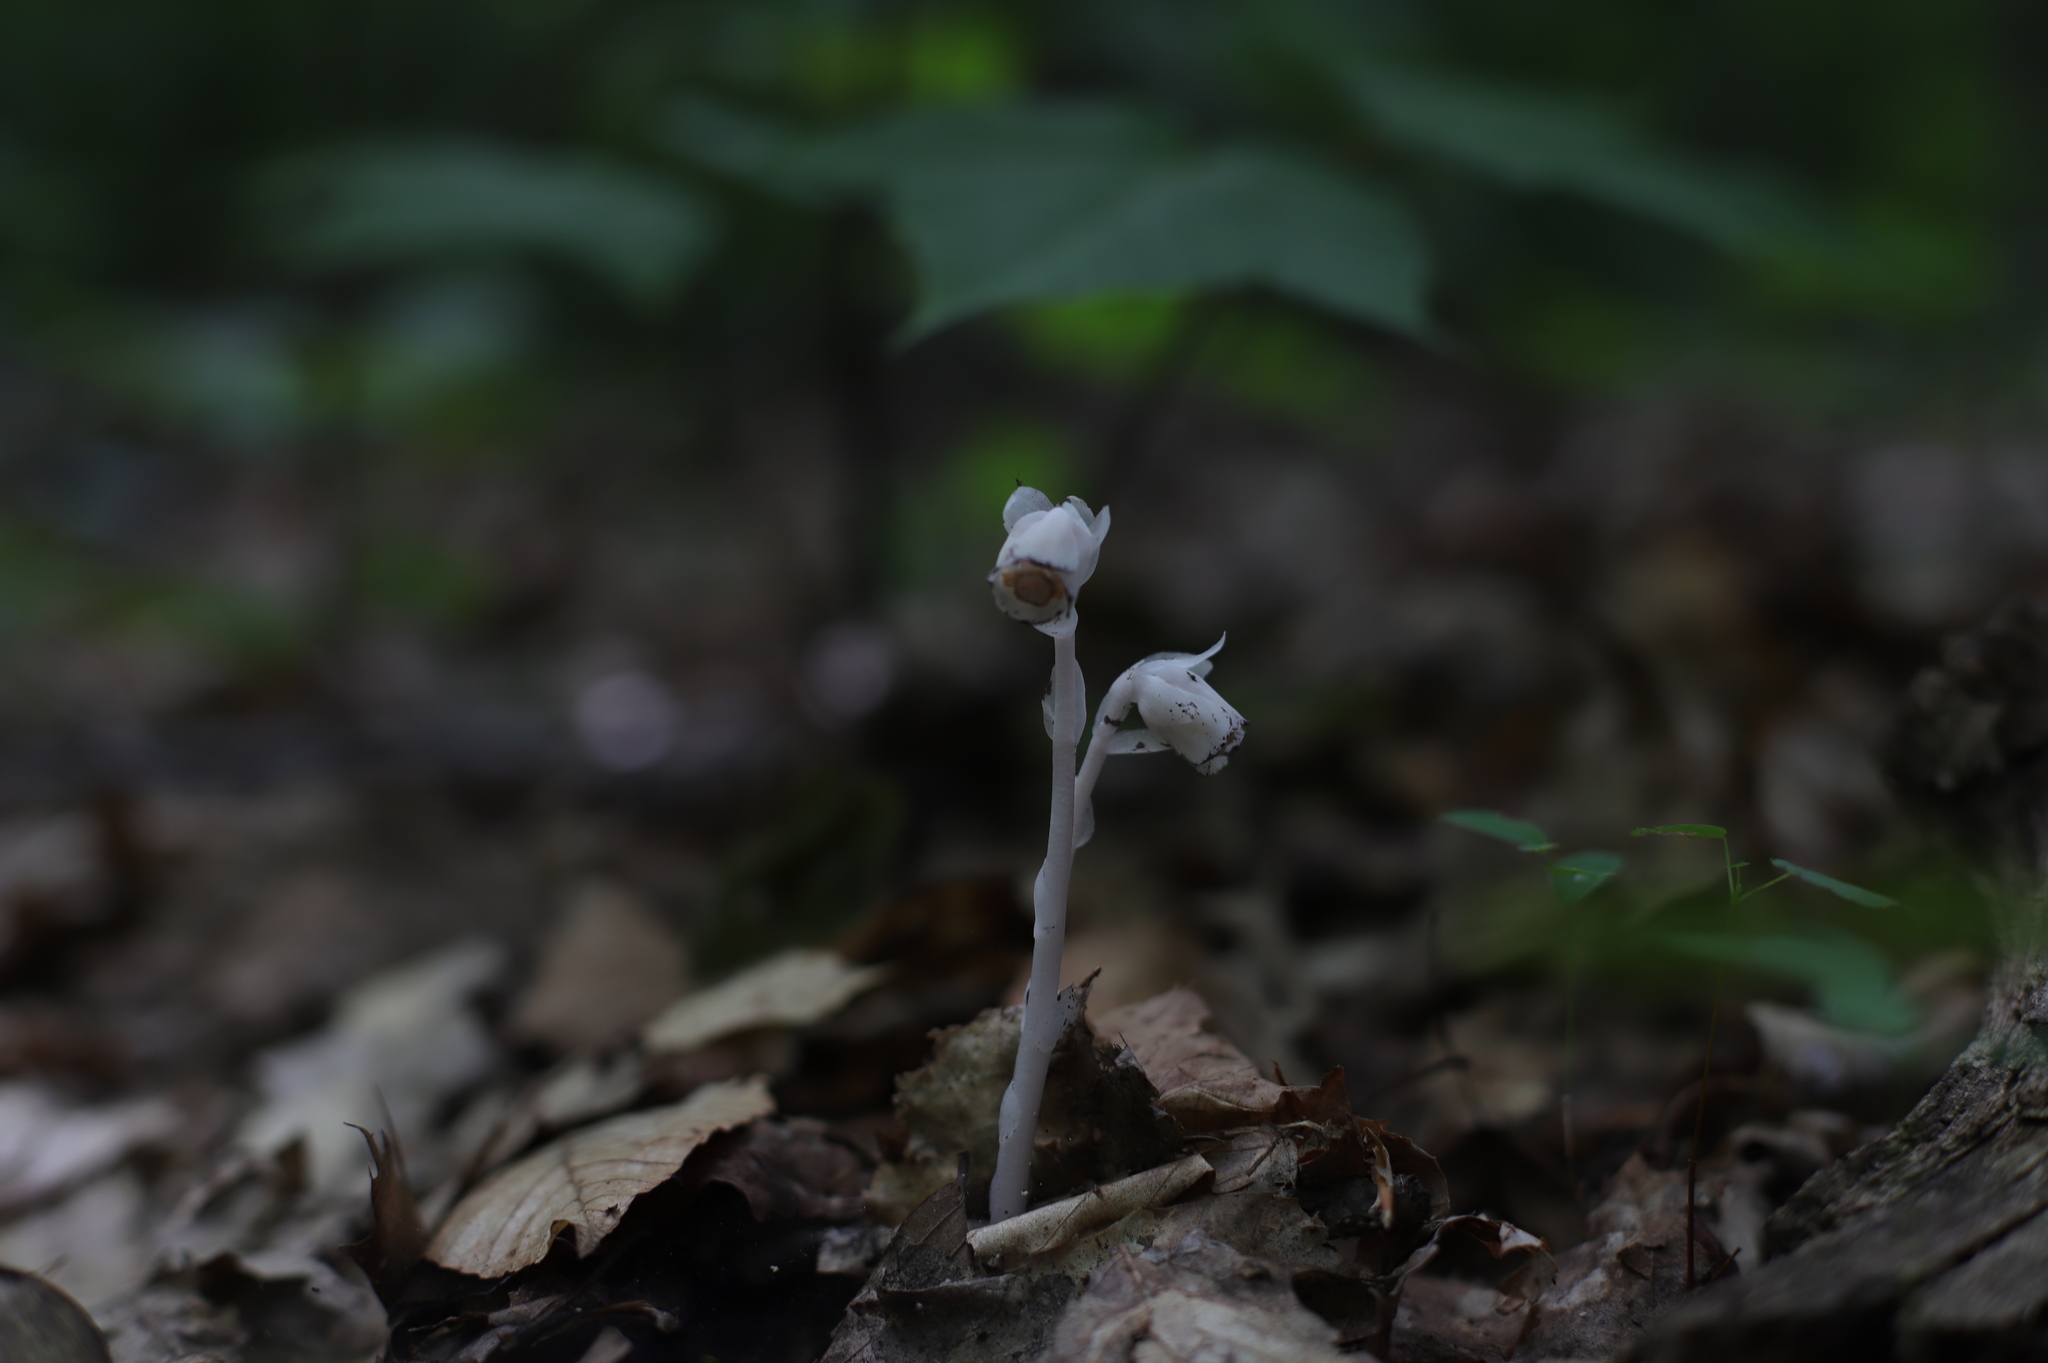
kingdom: Plantae
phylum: Tracheophyta
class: Magnoliopsida
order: Ericales
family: Ericaceae
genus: Monotropa
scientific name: Monotropa uniflora
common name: Convulsion root
